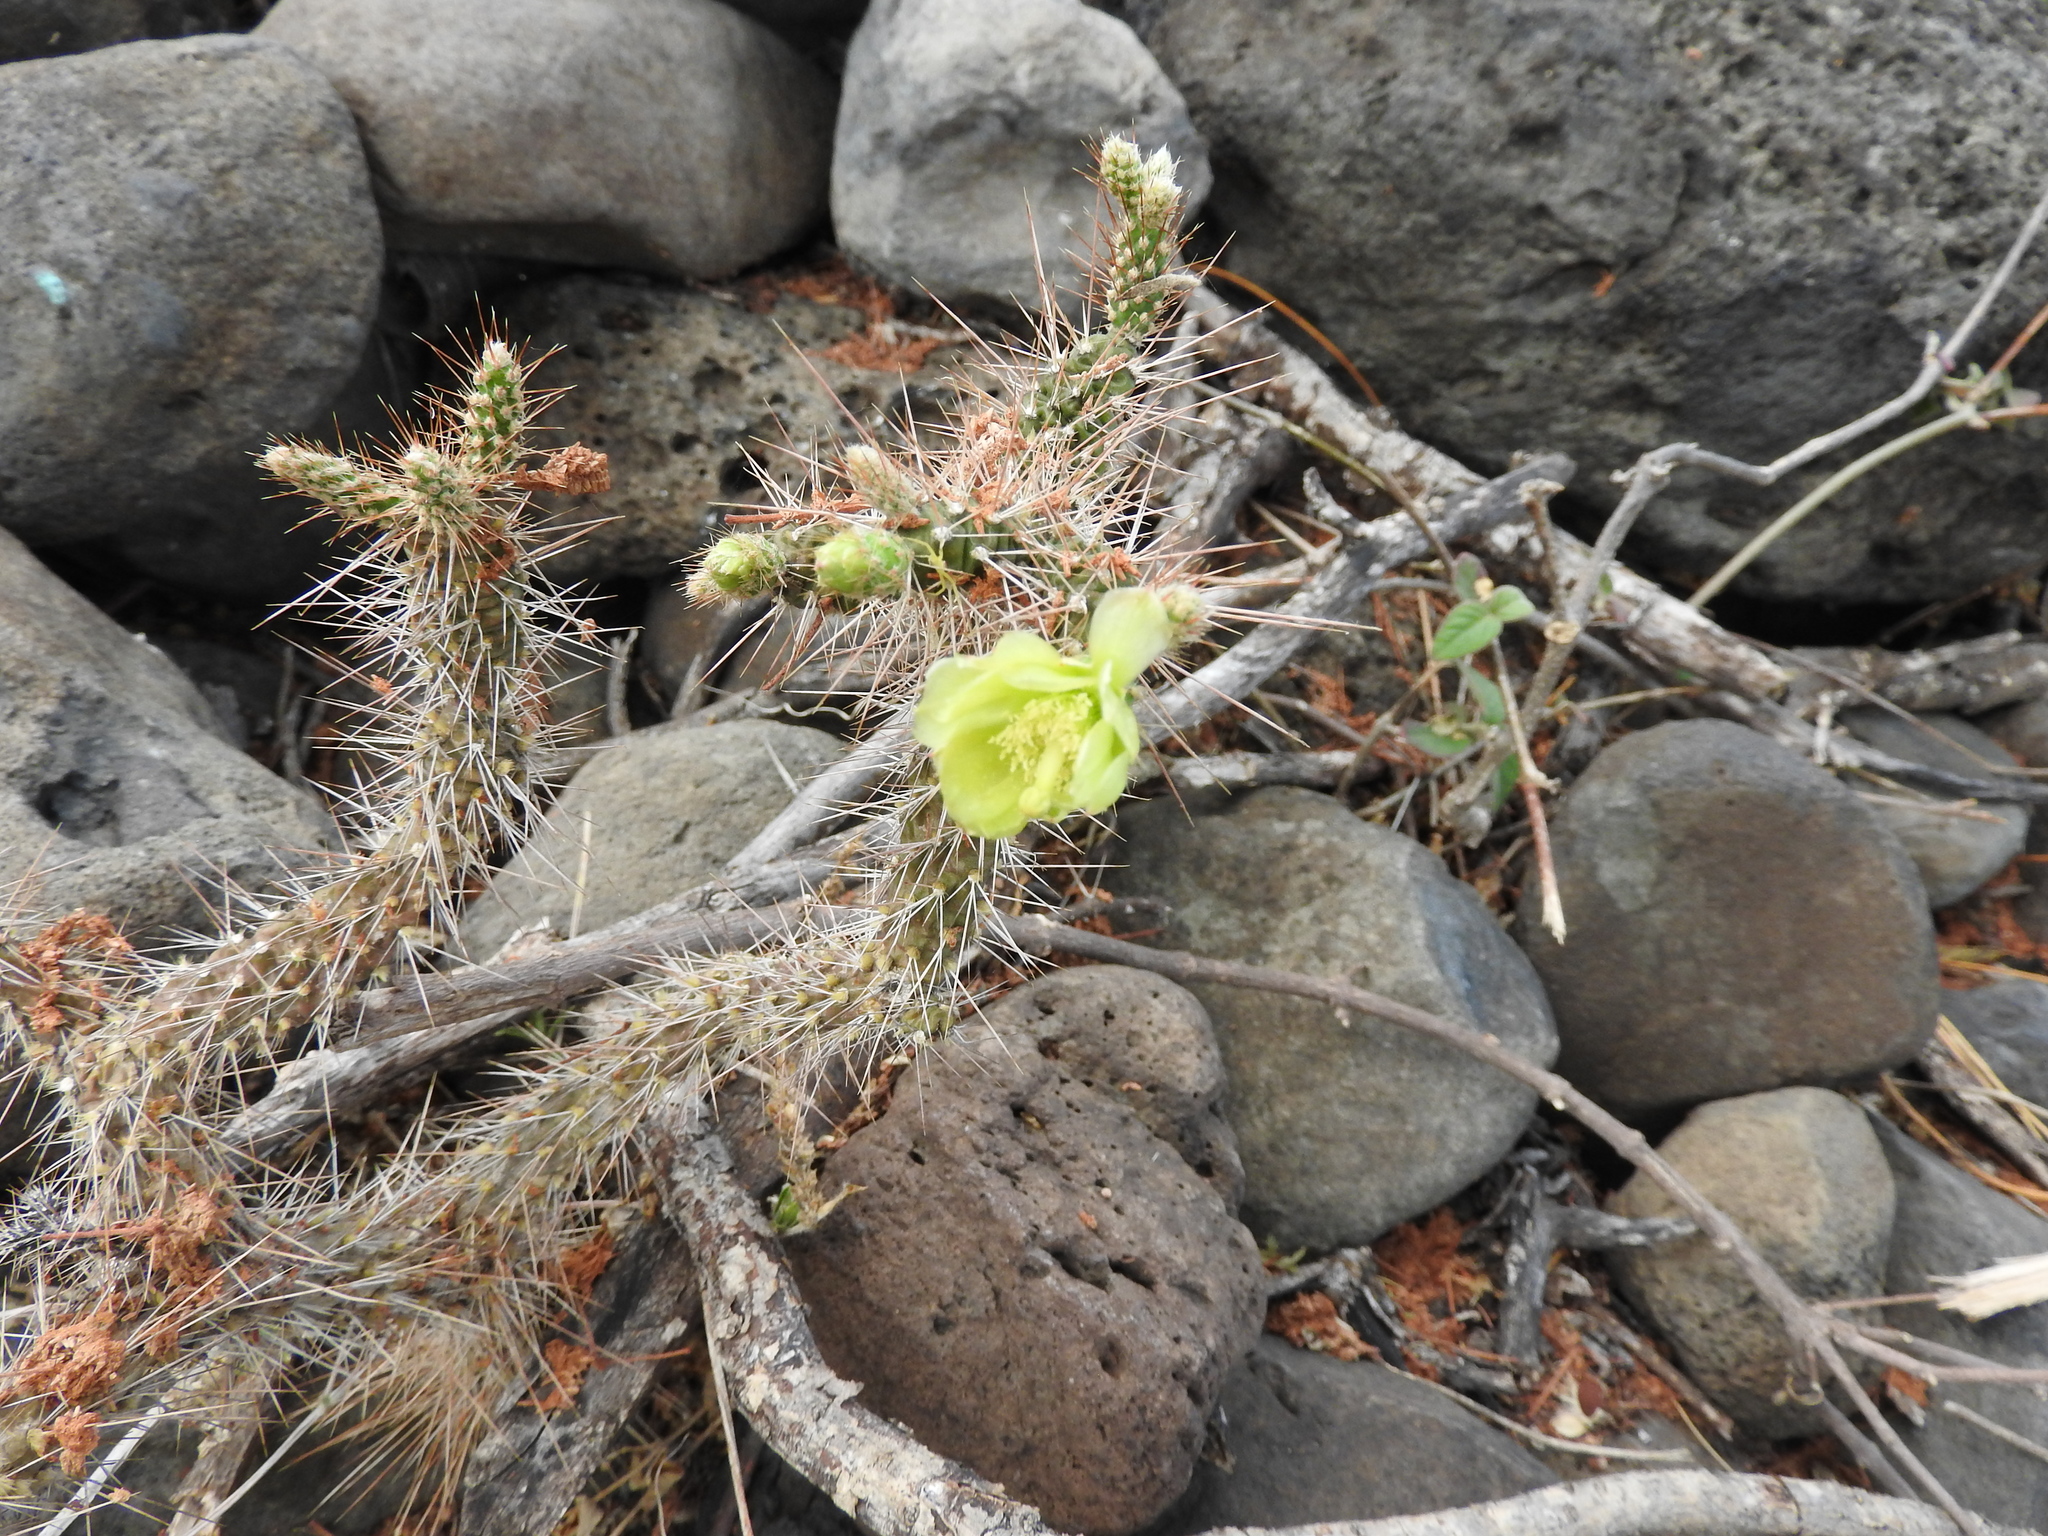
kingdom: Plantae
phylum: Tracheophyta
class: Magnoliopsida
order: Caryophyllales
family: Cactaceae
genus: Opuntia
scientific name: Opuntia pubescens
